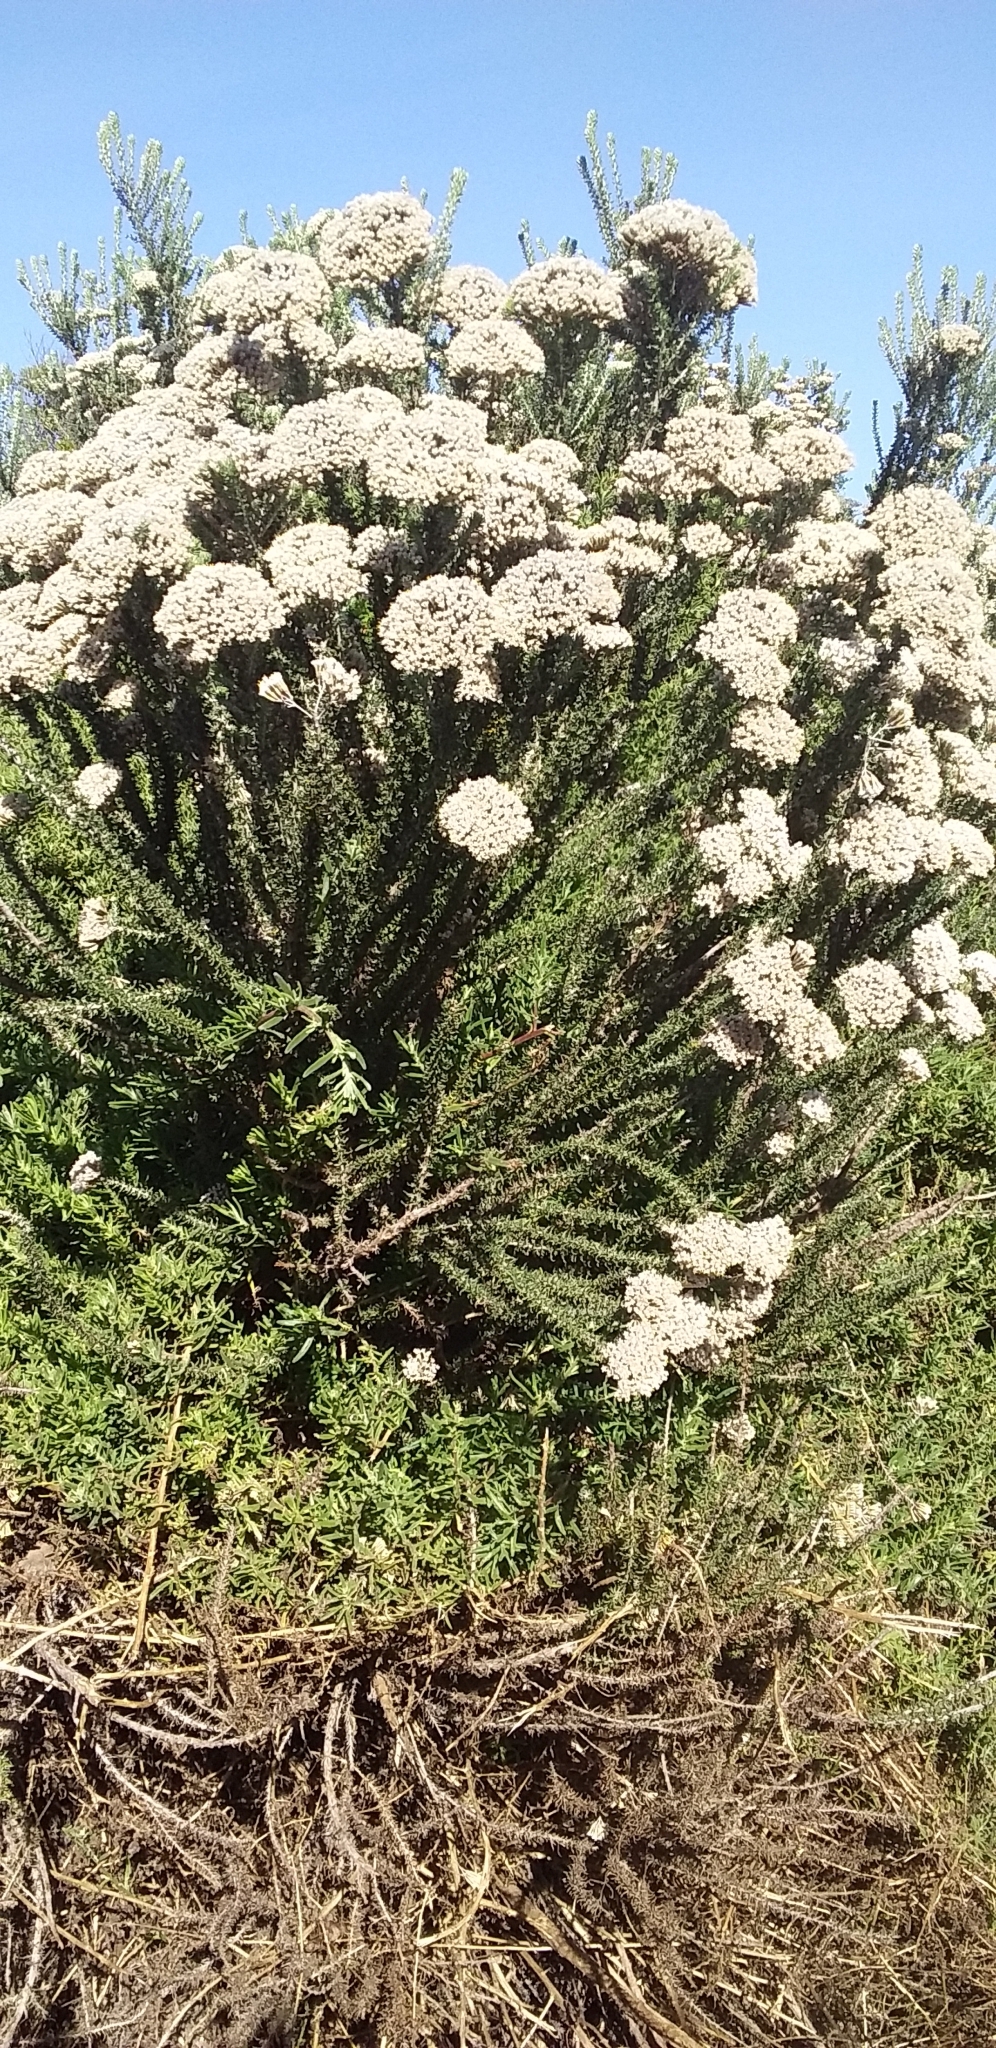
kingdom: Plantae
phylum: Tracheophyta
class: Magnoliopsida
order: Asterales
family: Asteraceae
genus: Metalasia
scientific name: Metalasia muricata
